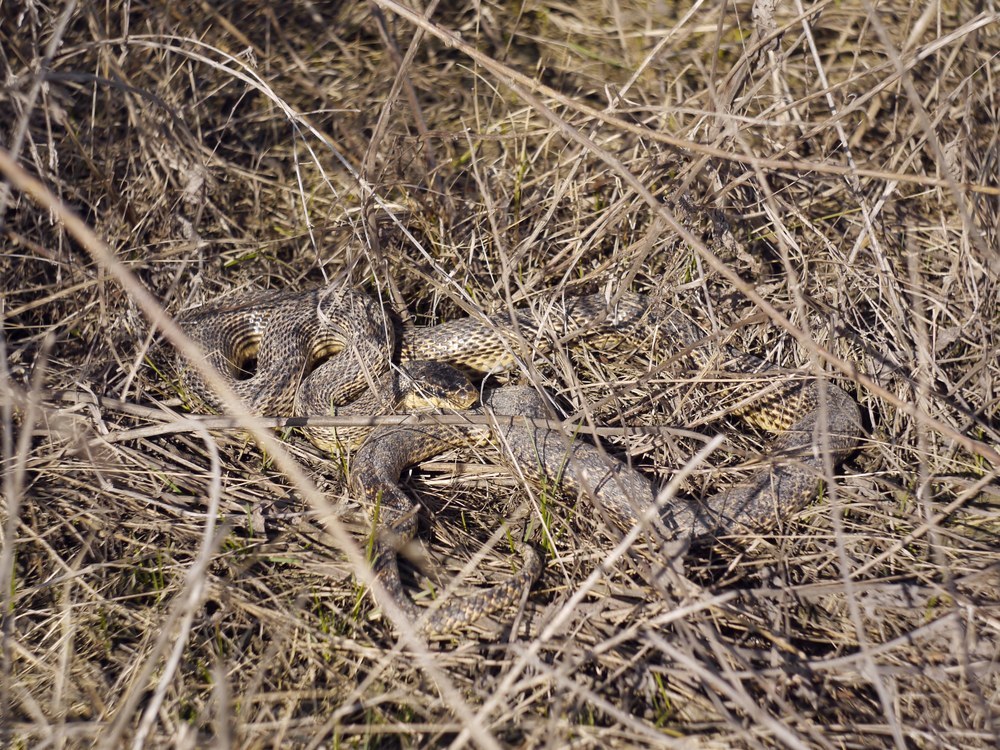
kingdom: Animalia
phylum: Chordata
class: Squamata
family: Colubridae
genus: Elaphe
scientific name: Elaphe sauromates
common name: Eastern four-lined ratsnake
